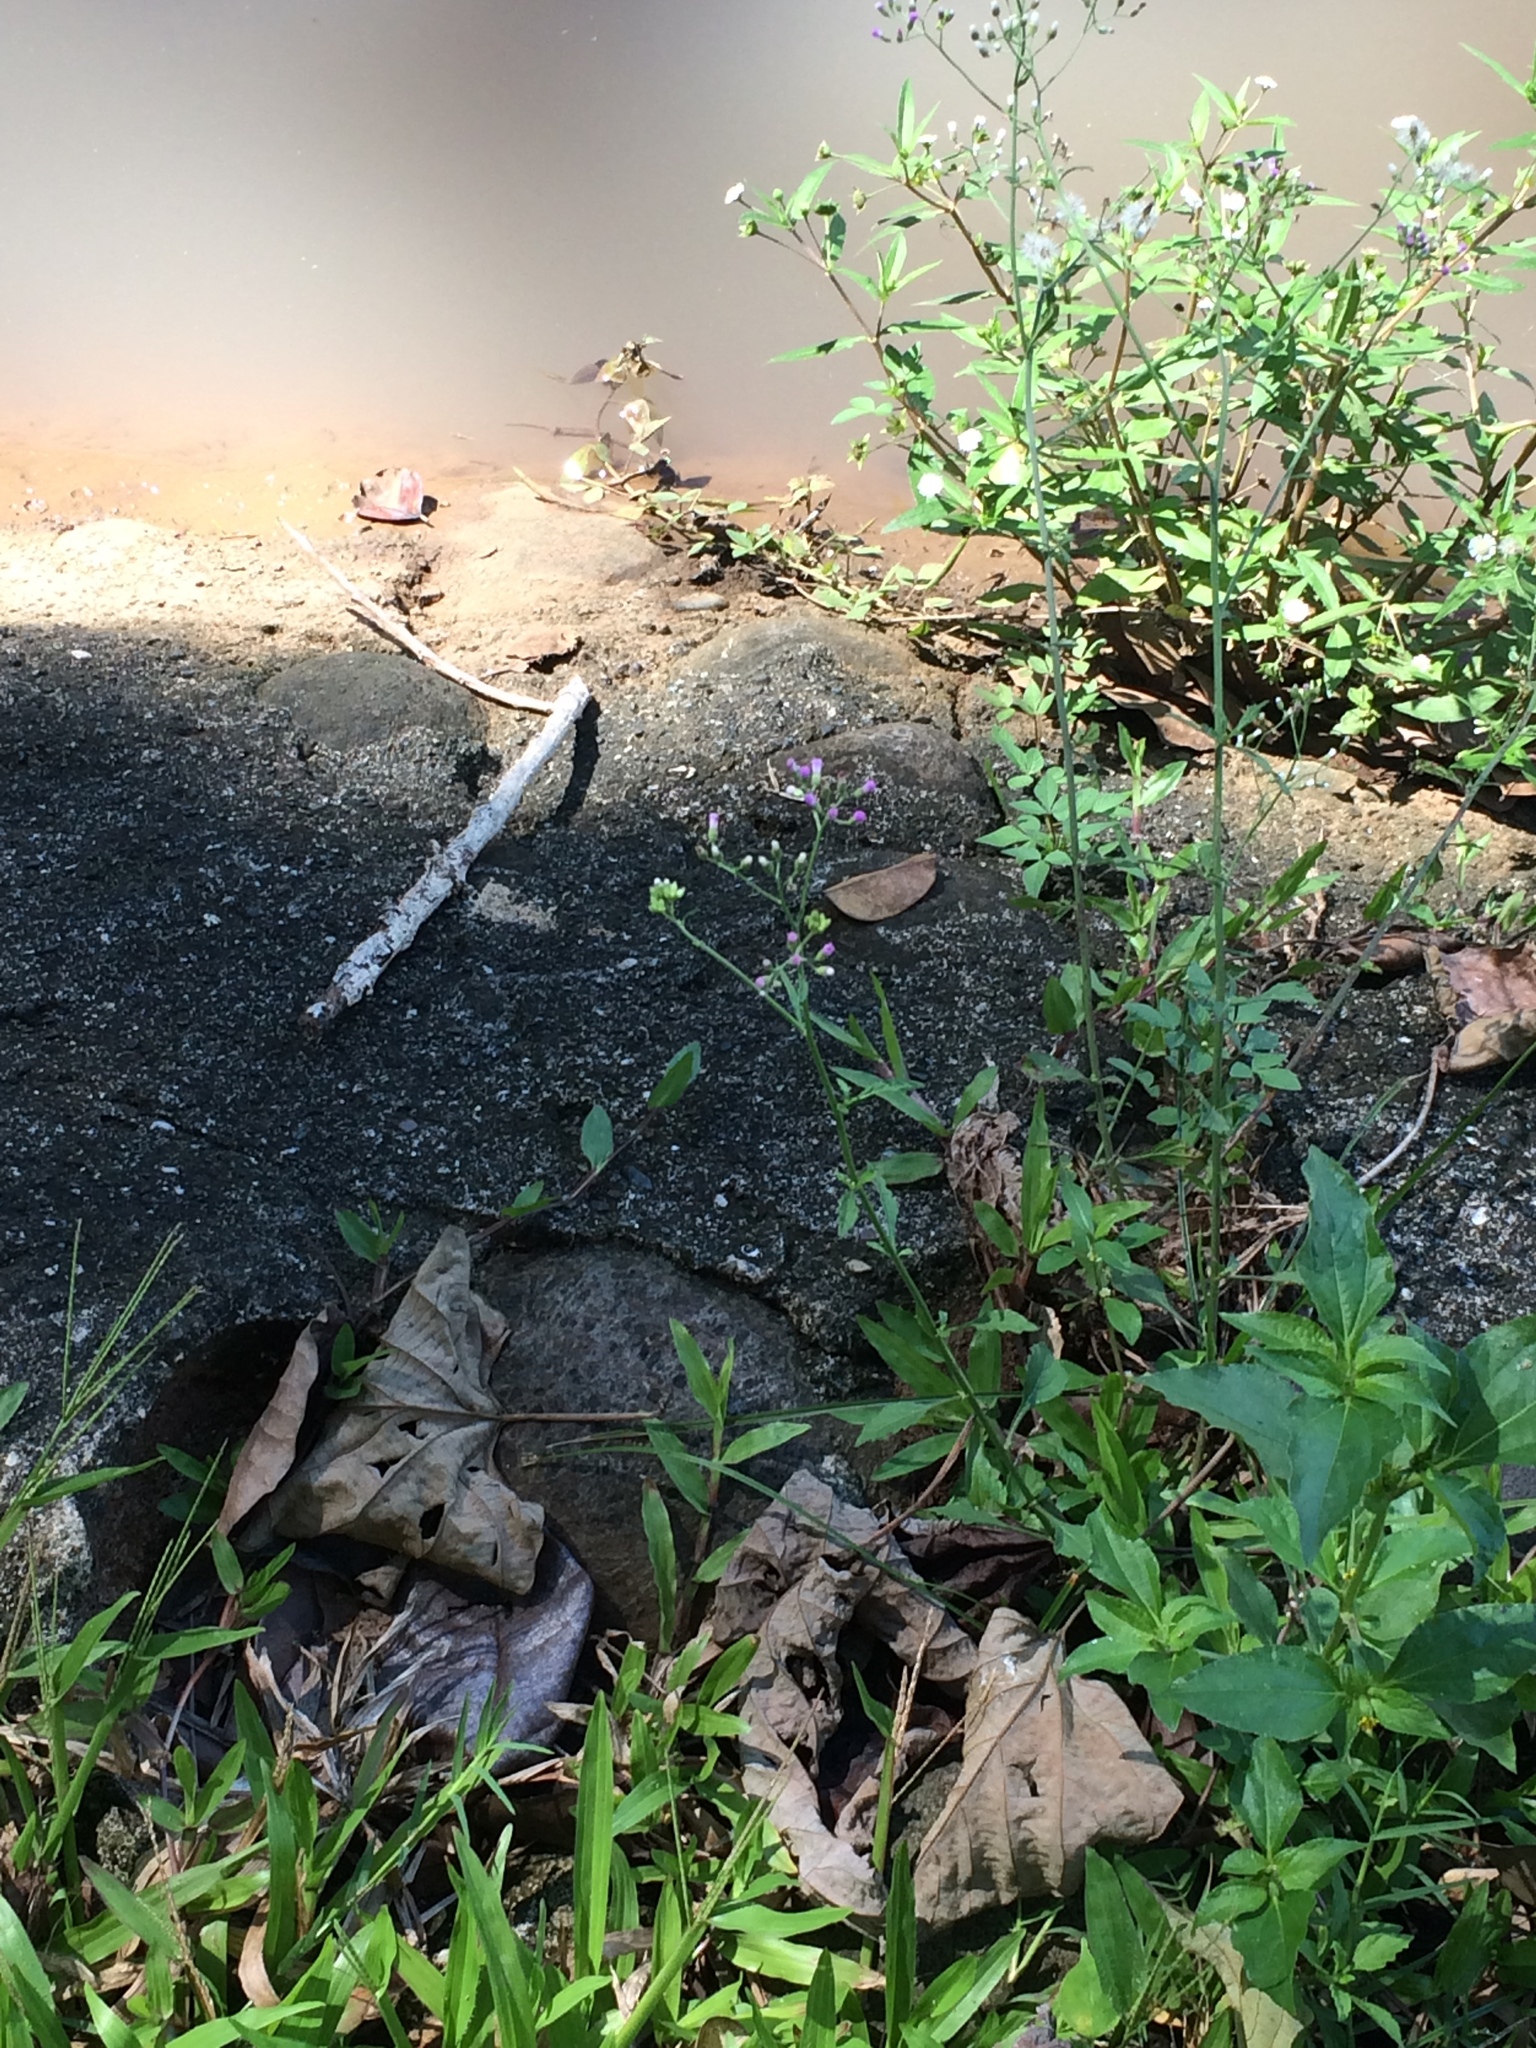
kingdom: Plantae
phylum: Tracheophyta
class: Magnoliopsida
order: Asterales
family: Asteraceae
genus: Cyanthillium
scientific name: Cyanthillium cinereum
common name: Little ironweed
